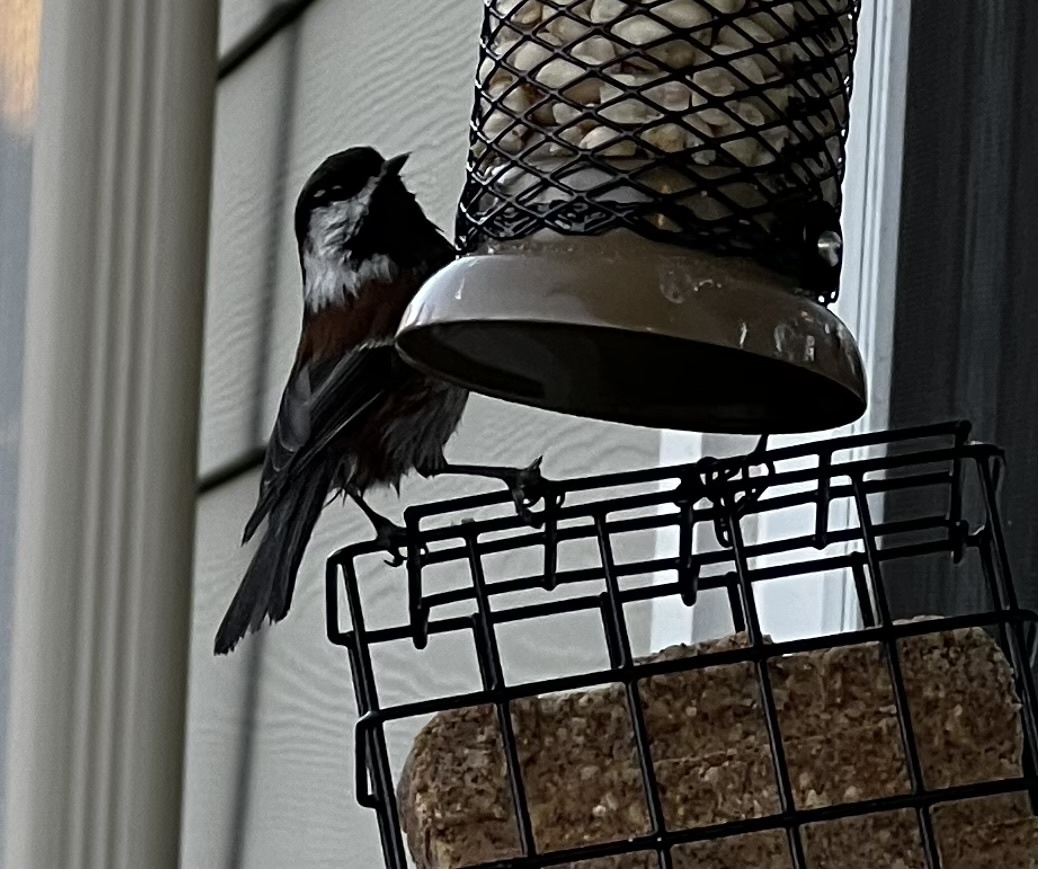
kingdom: Animalia
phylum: Chordata
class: Aves
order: Passeriformes
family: Paridae
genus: Poecile
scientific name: Poecile rufescens
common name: Chestnut-backed chickadee
